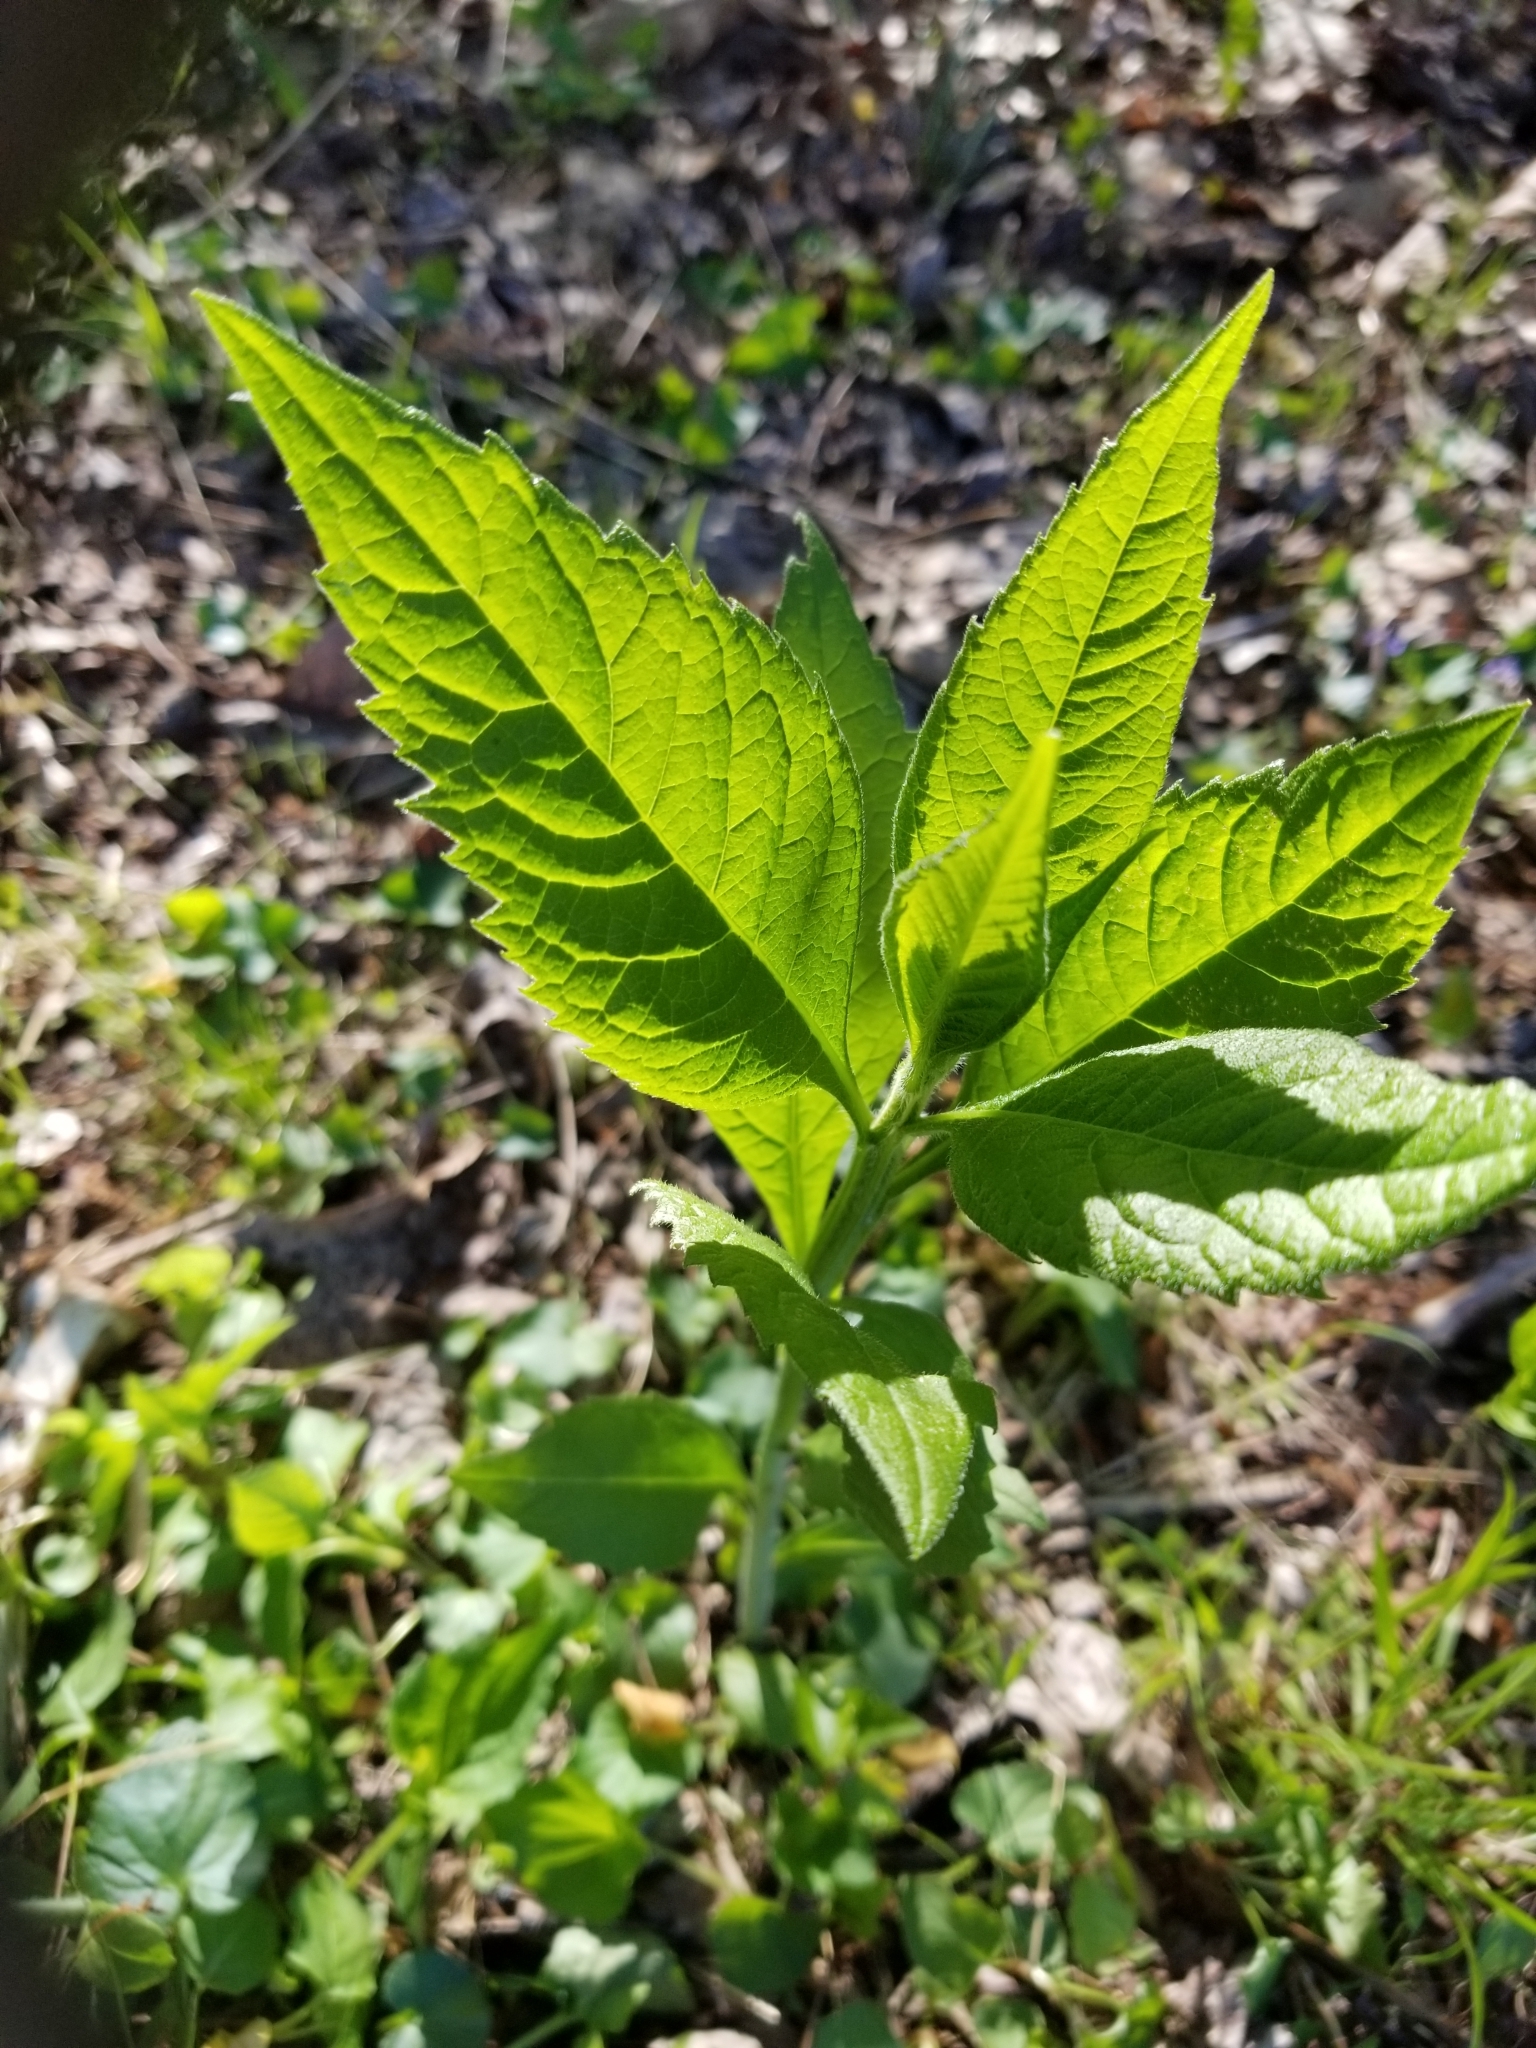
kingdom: Plantae
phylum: Tracheophyta
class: Magnoliopsida
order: Asterales
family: Asteraceae
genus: Verbesina
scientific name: Verbesina alternifolia
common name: Wingstem
